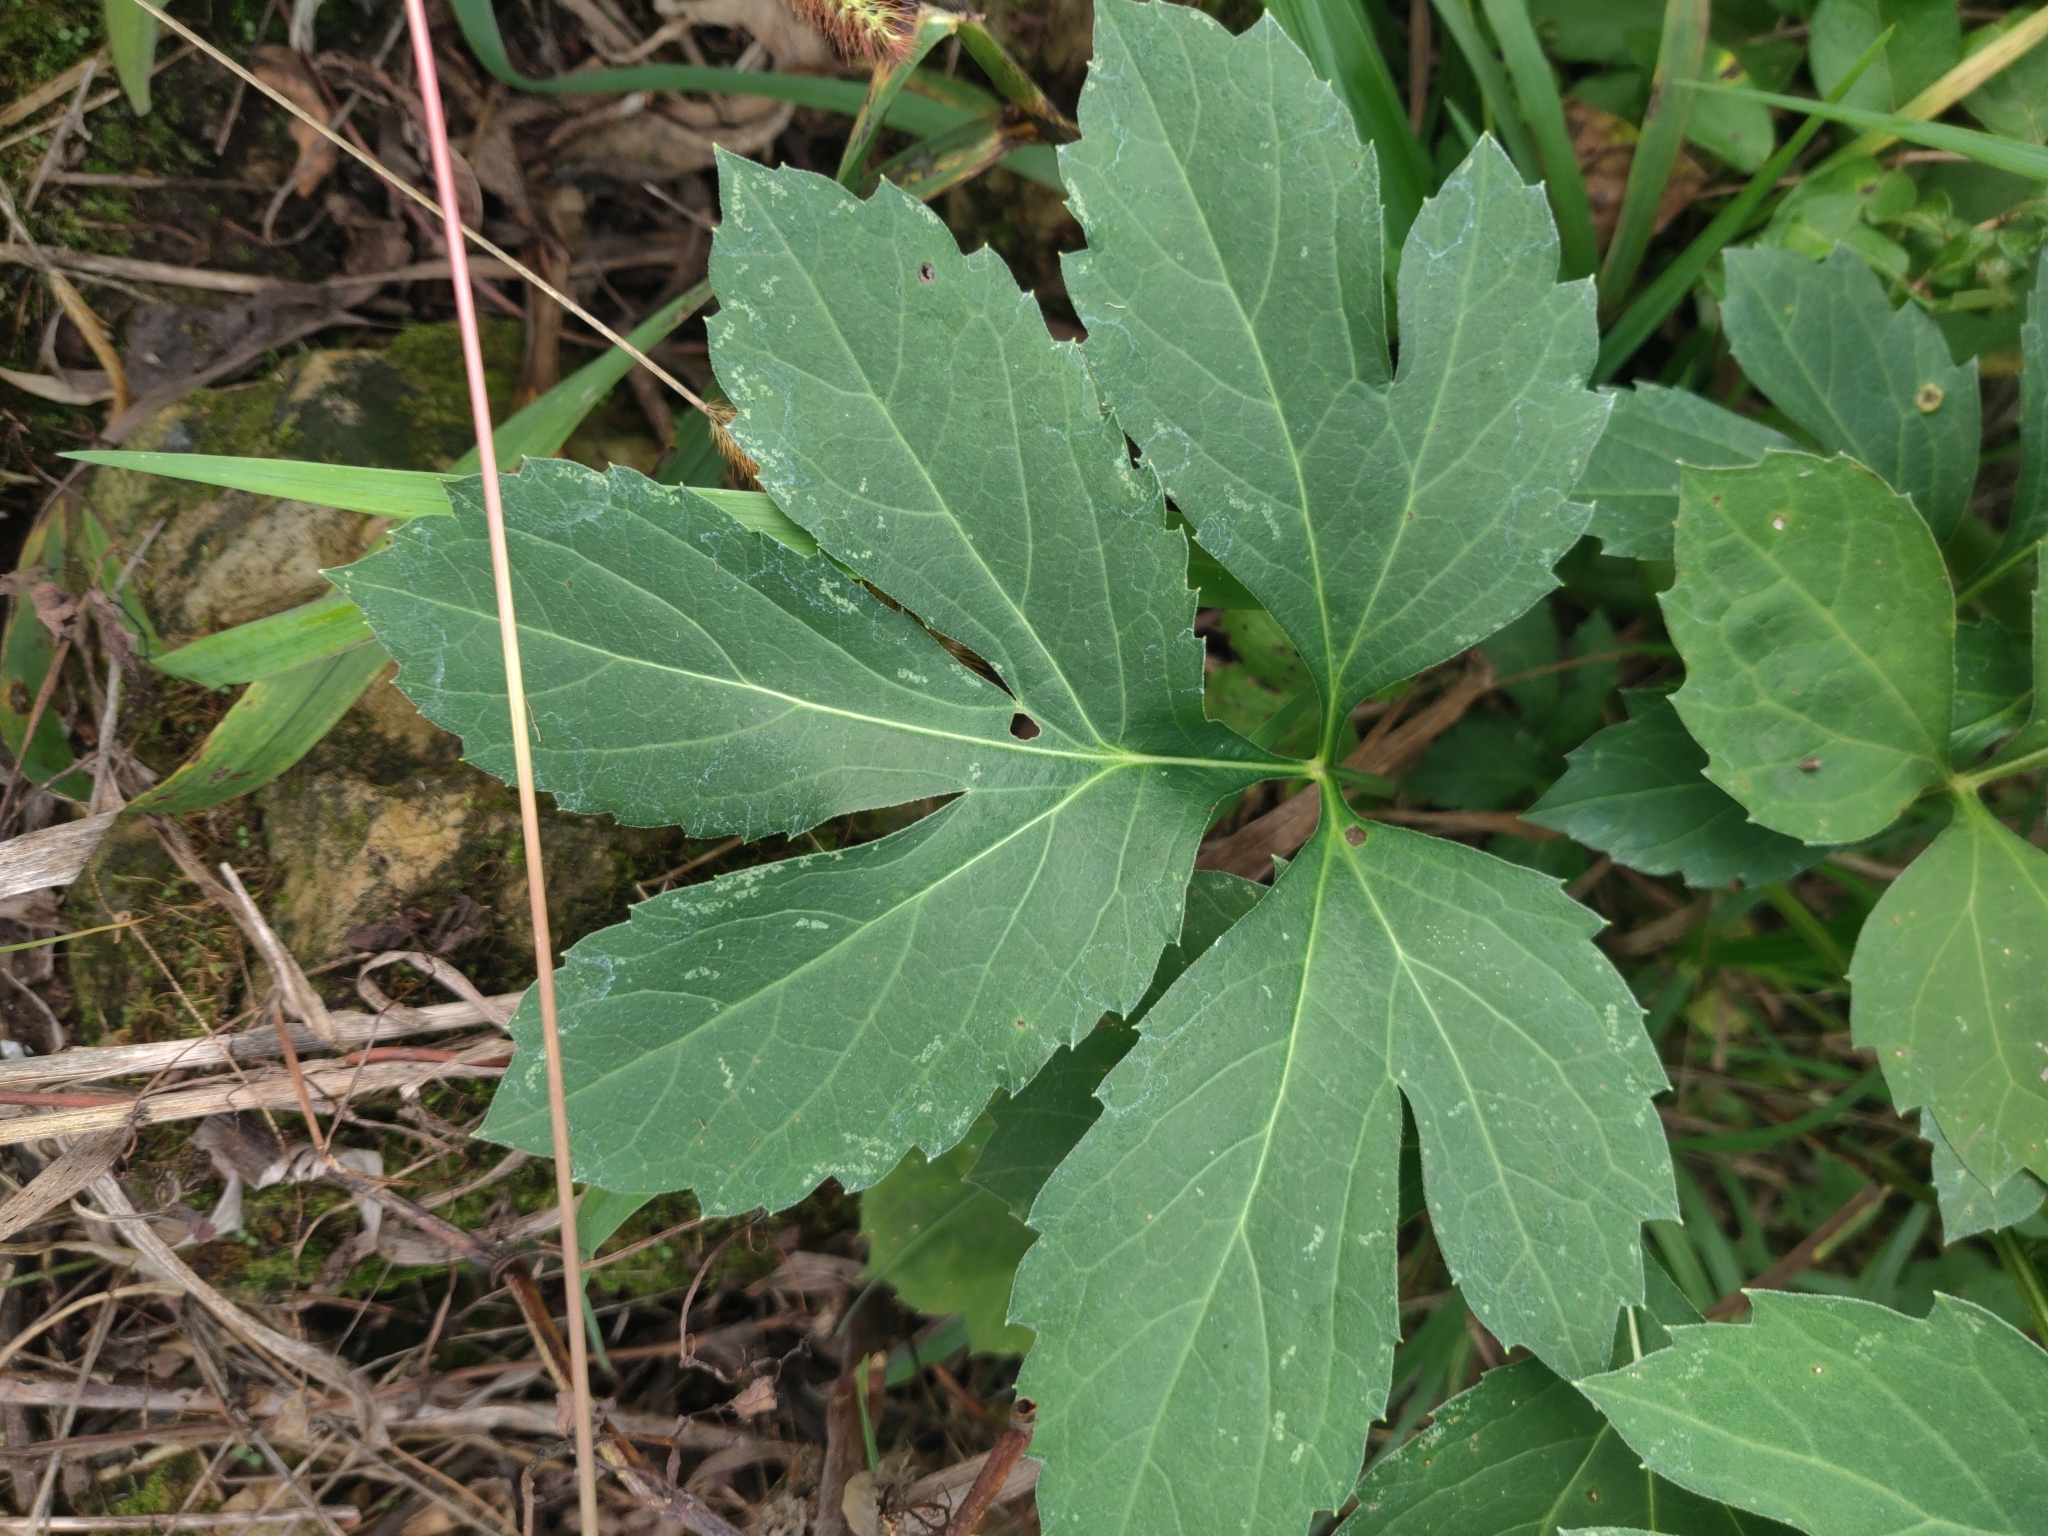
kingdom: Plantae
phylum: Tracheophyta
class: Magnoliopsida
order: Asterales
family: Asteraceae
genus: Rudbeckia
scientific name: Rudbeckia laciniata
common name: Coneflower
